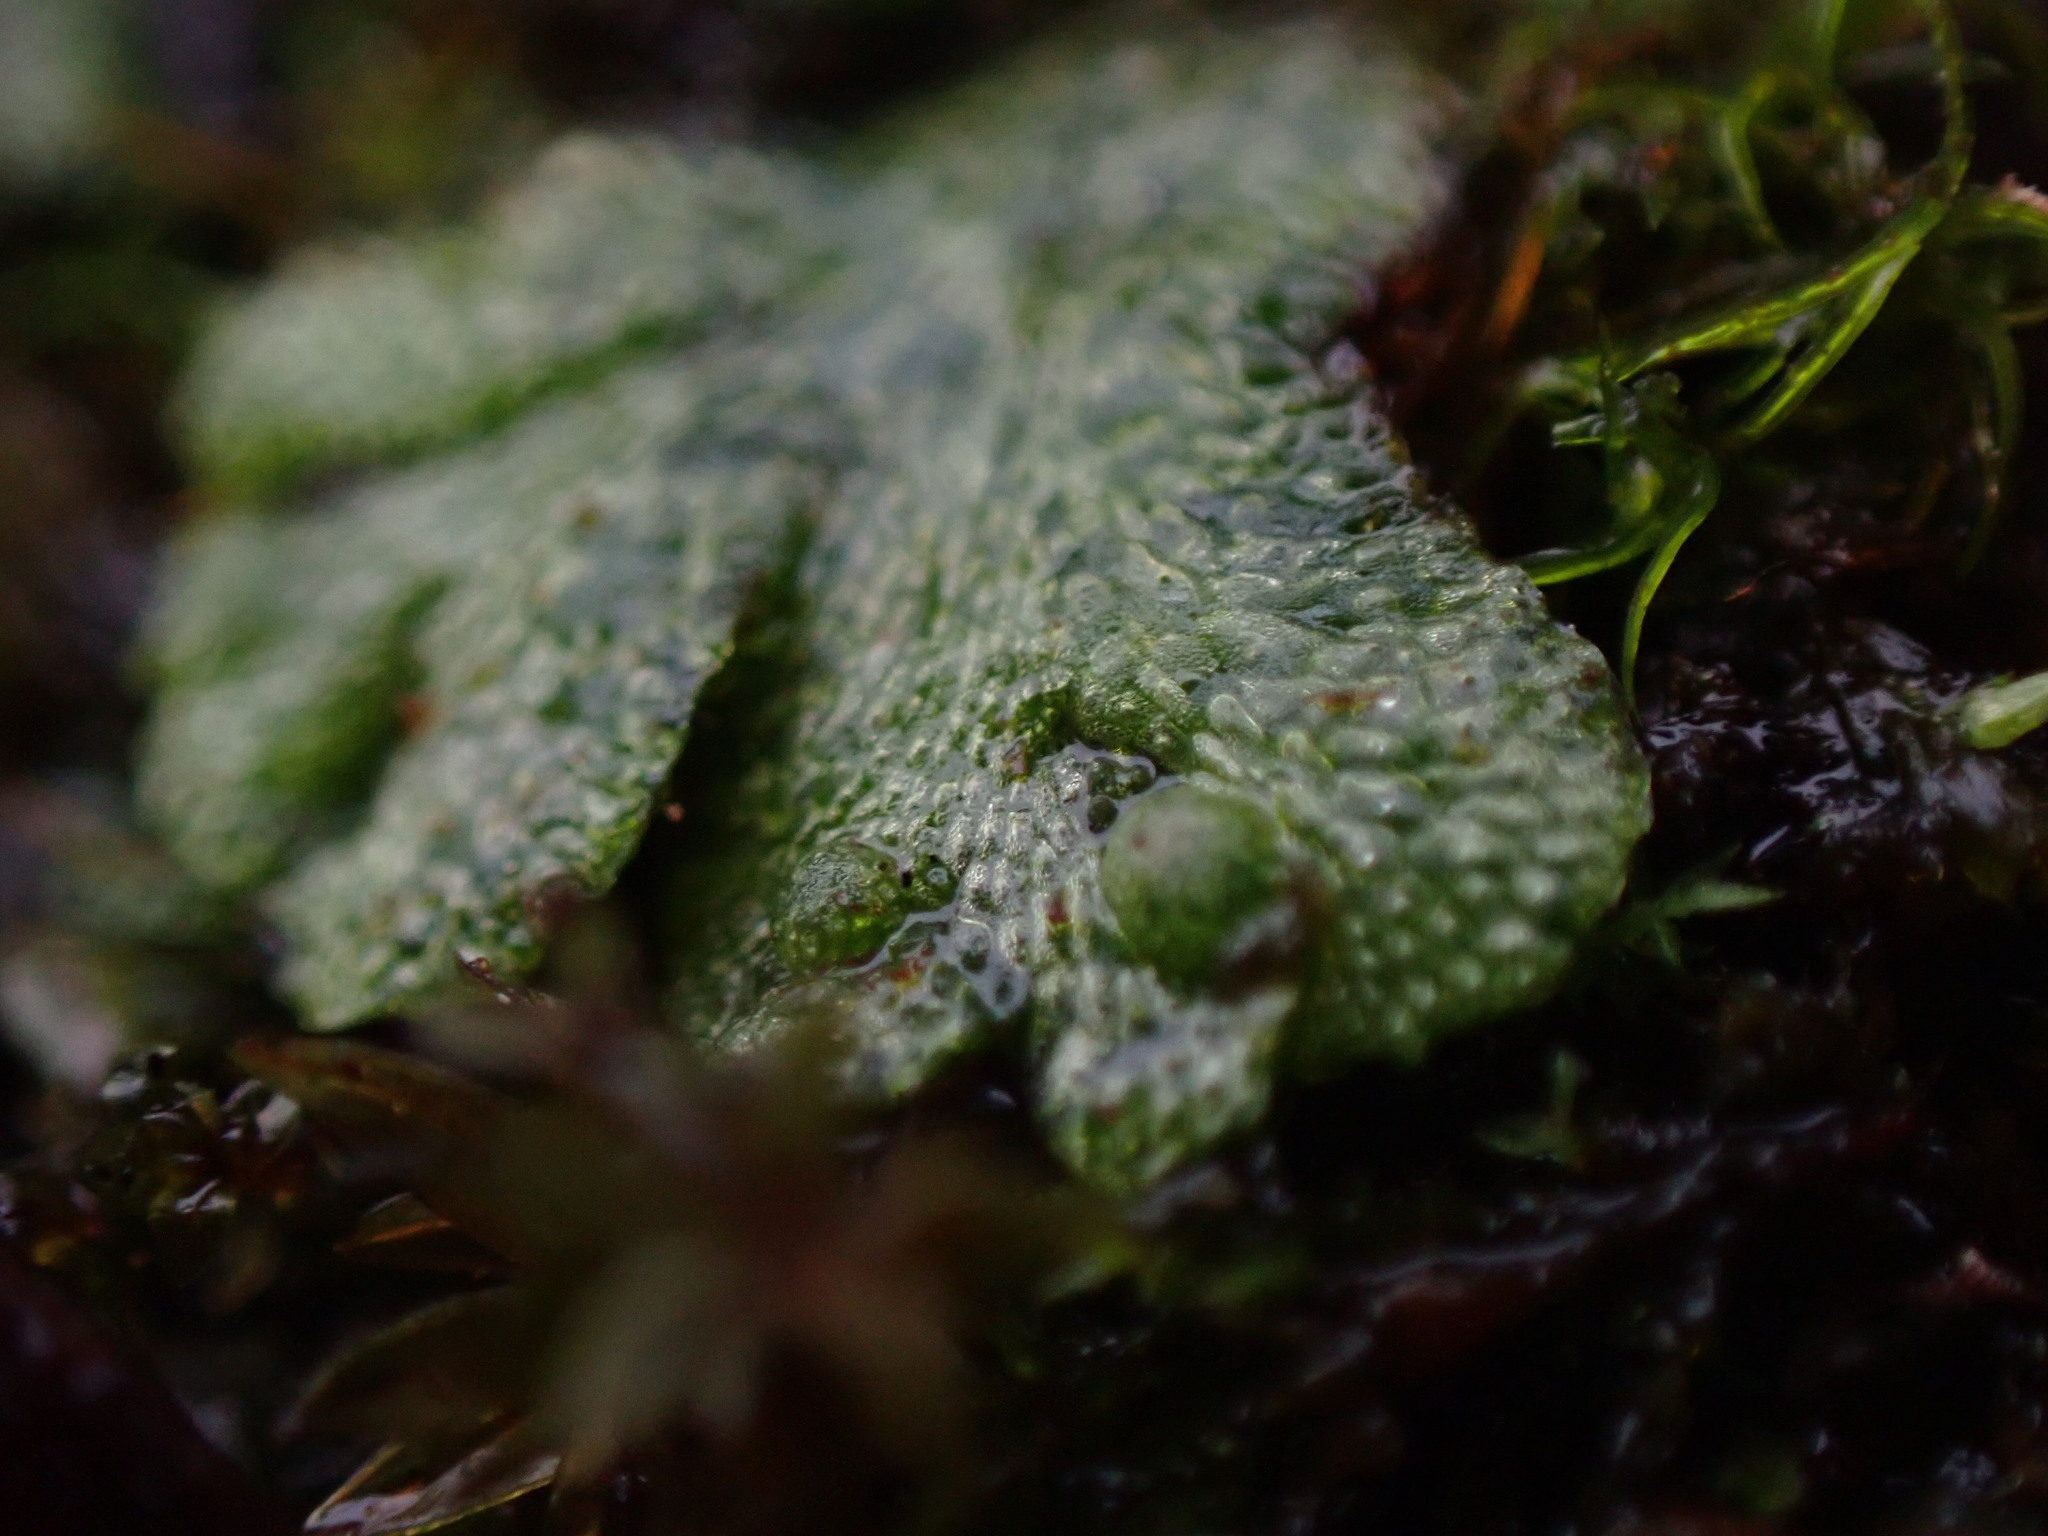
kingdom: Plantae
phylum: Marchantiophyta
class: Marchantiopsida
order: Marchantiales
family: Aytoniaceae
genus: Mannia
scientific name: Mannia gracilis
